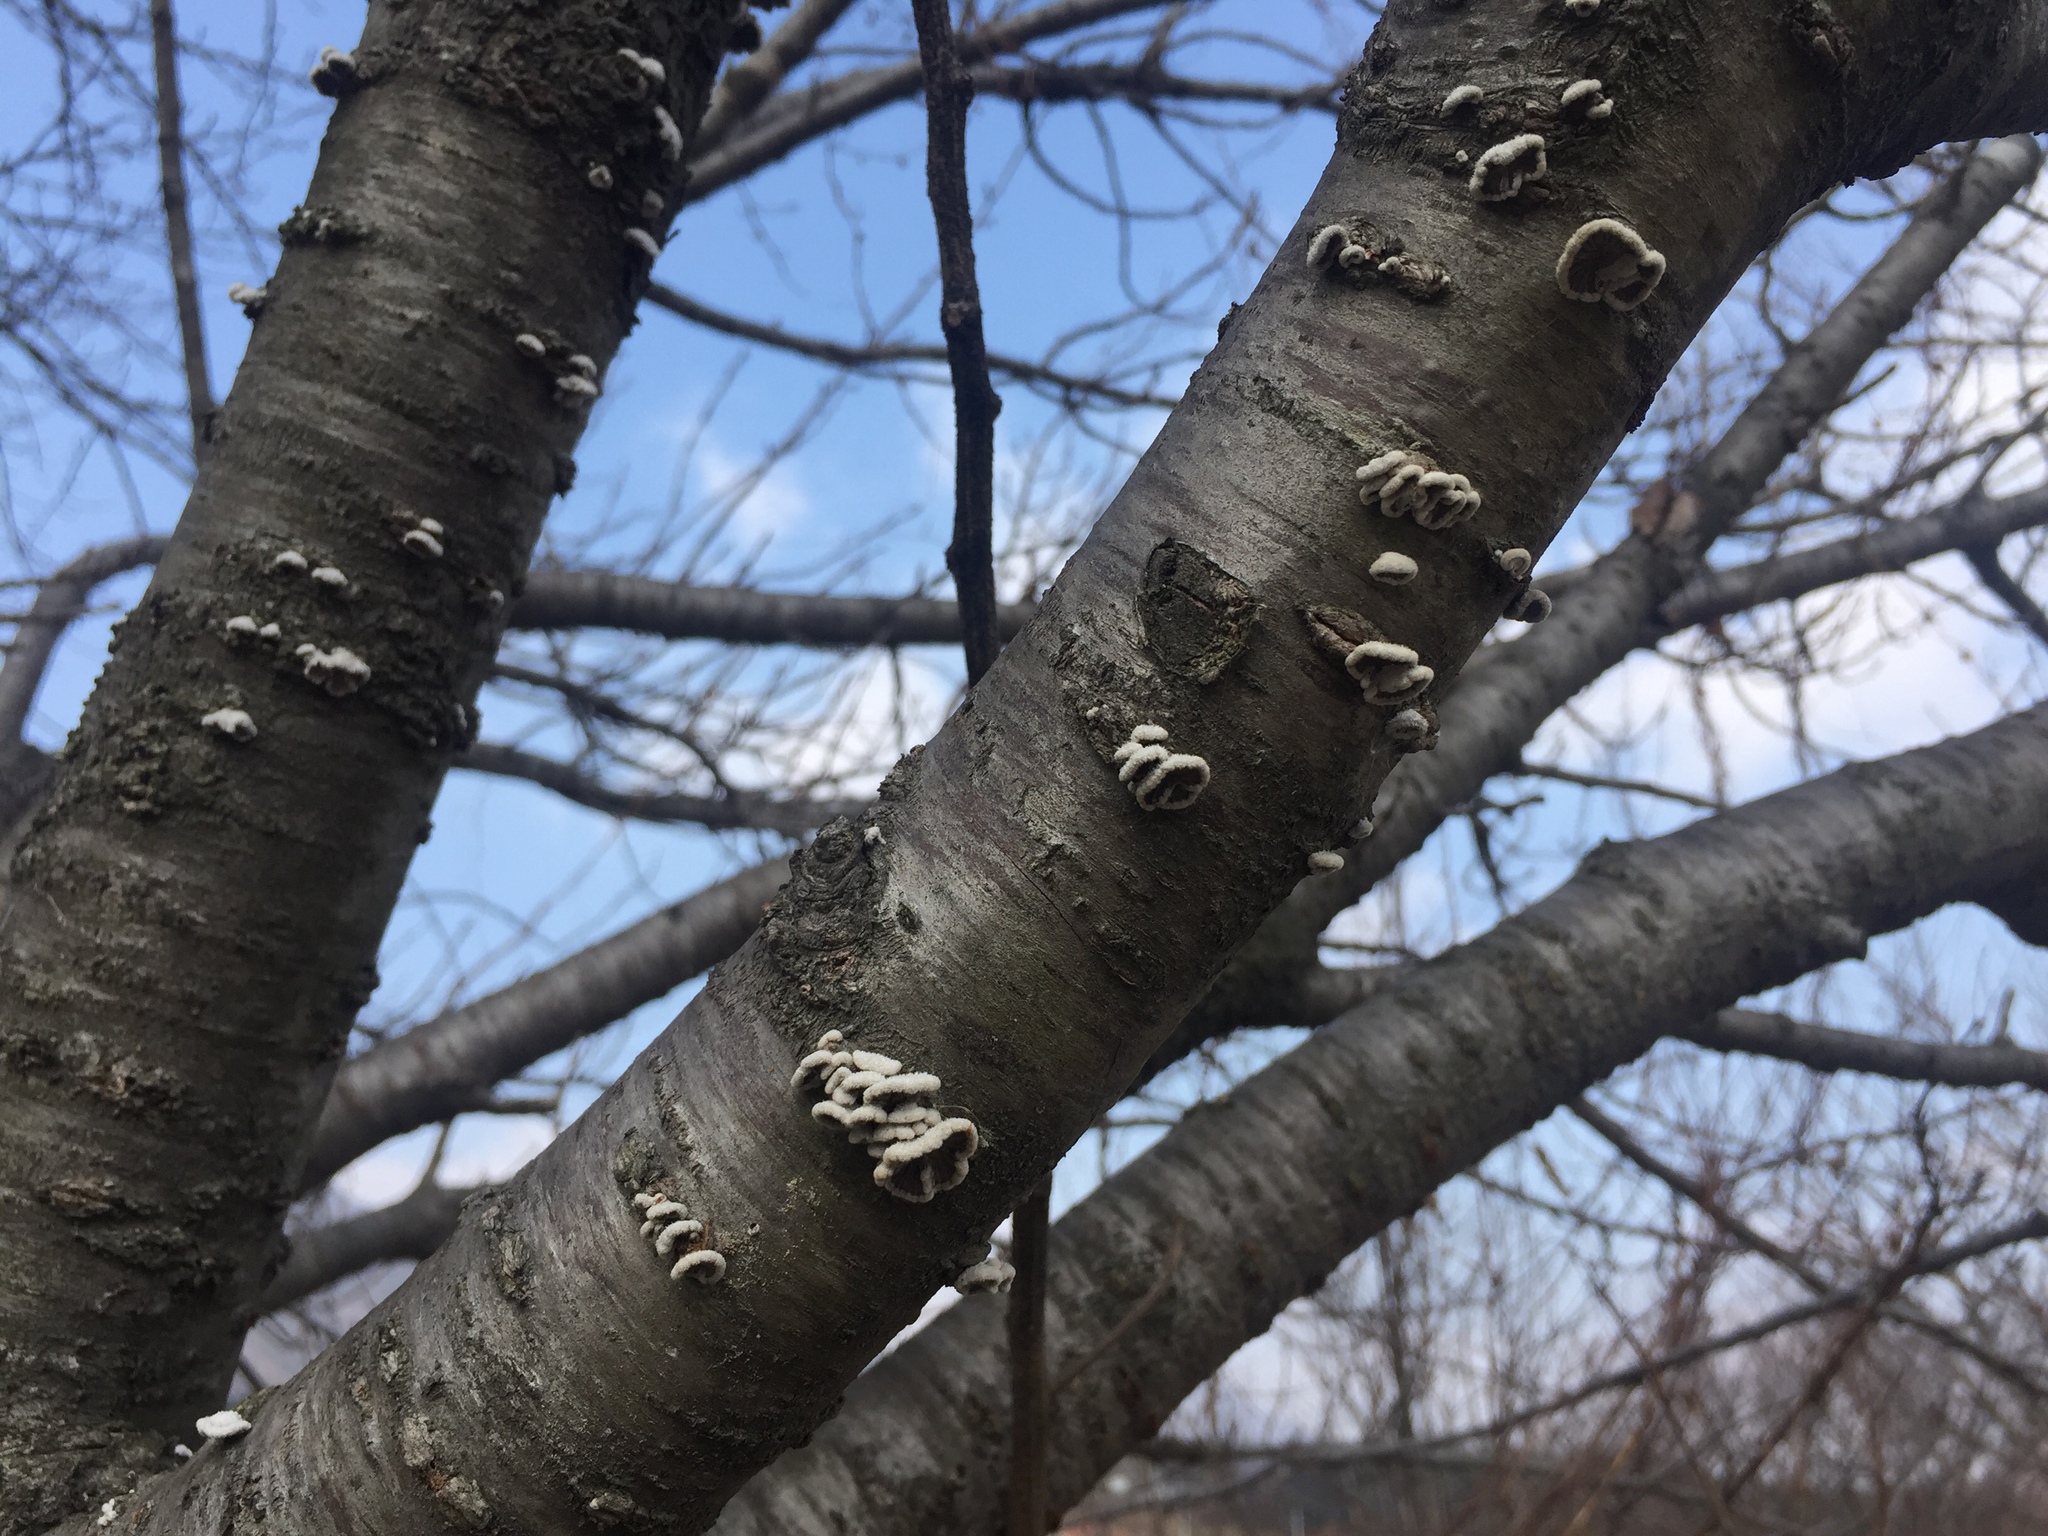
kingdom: Fungi
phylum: Basidiomycota
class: Agaricomycetes
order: Agaricales
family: Schizophyllaceae
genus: Schizophyllum
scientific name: Schizophyllum commune
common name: Common porecrust
